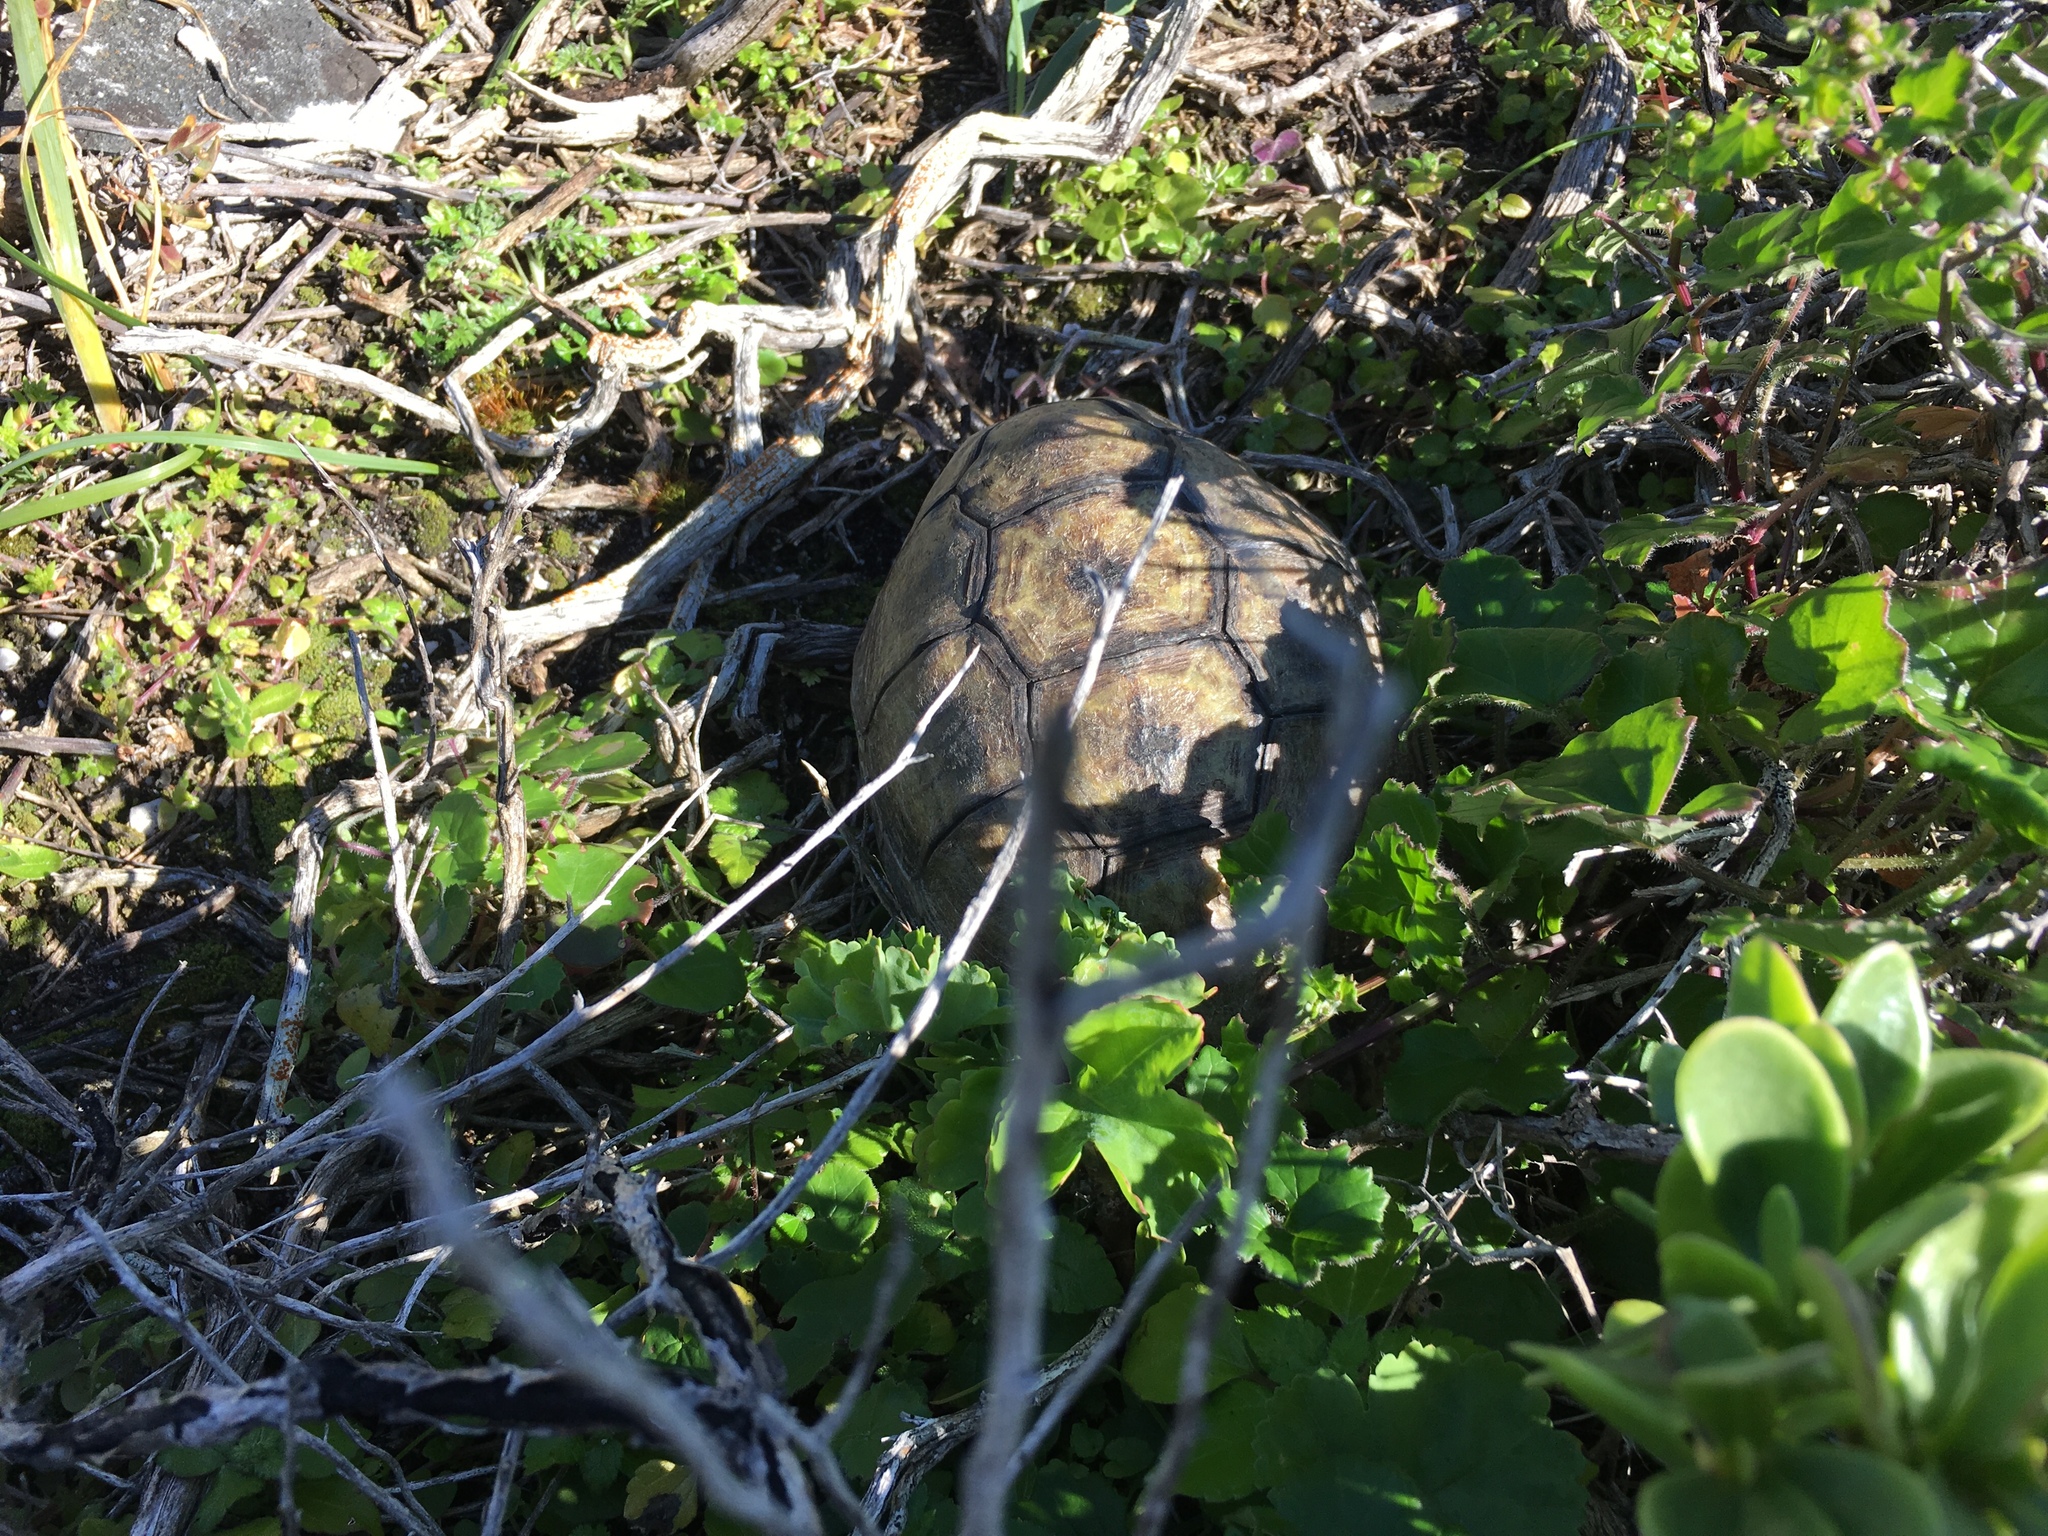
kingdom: Animalia
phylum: Chordata
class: Testudines
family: Testudinidae
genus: Chersina
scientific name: Chersina angulata
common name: South african bowsprit tortoise
